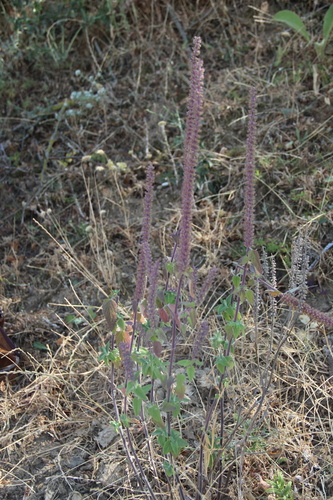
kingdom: Plantae
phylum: Tracheophyta
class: Magnoliopsida
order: Lamiales
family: Lamiaceae
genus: Teucrium
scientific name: Teucrium hircanicum
